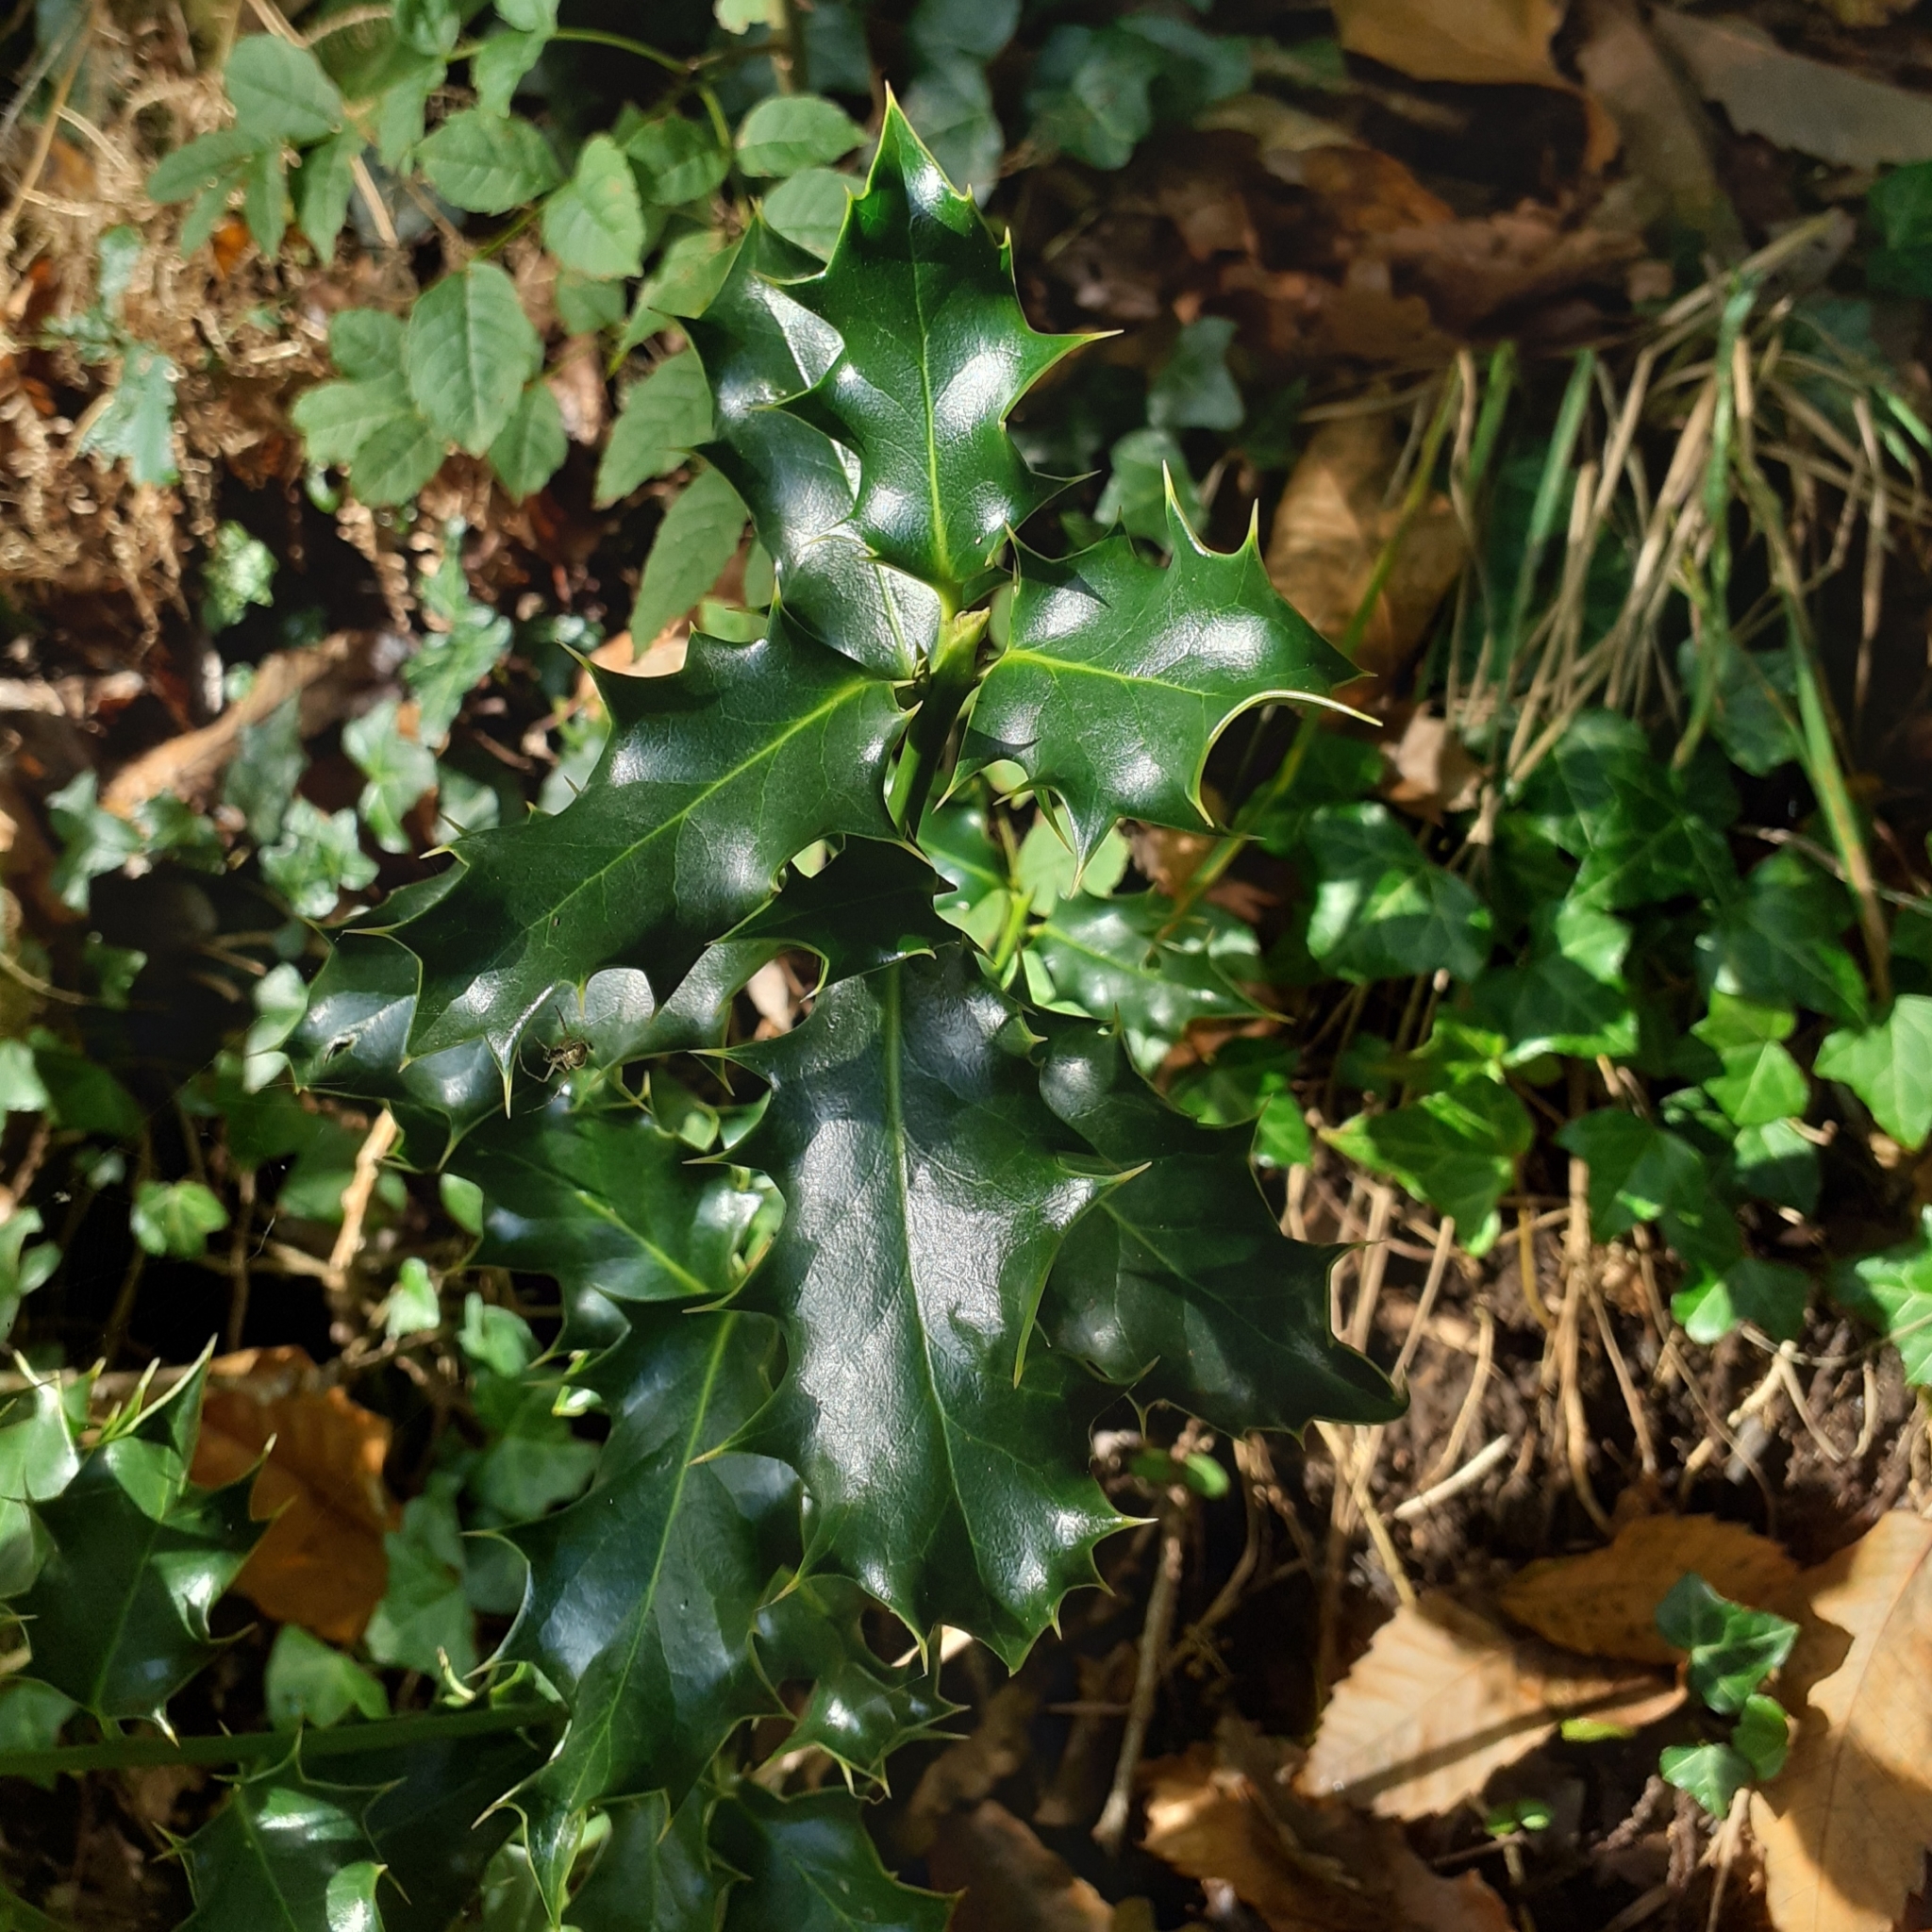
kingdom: Plantae
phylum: Tracheophyta
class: Magnoliopsida
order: Aquifoliales
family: Aquifoliaceae
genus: Ilex
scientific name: Ilex aquifolium
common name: English holly
